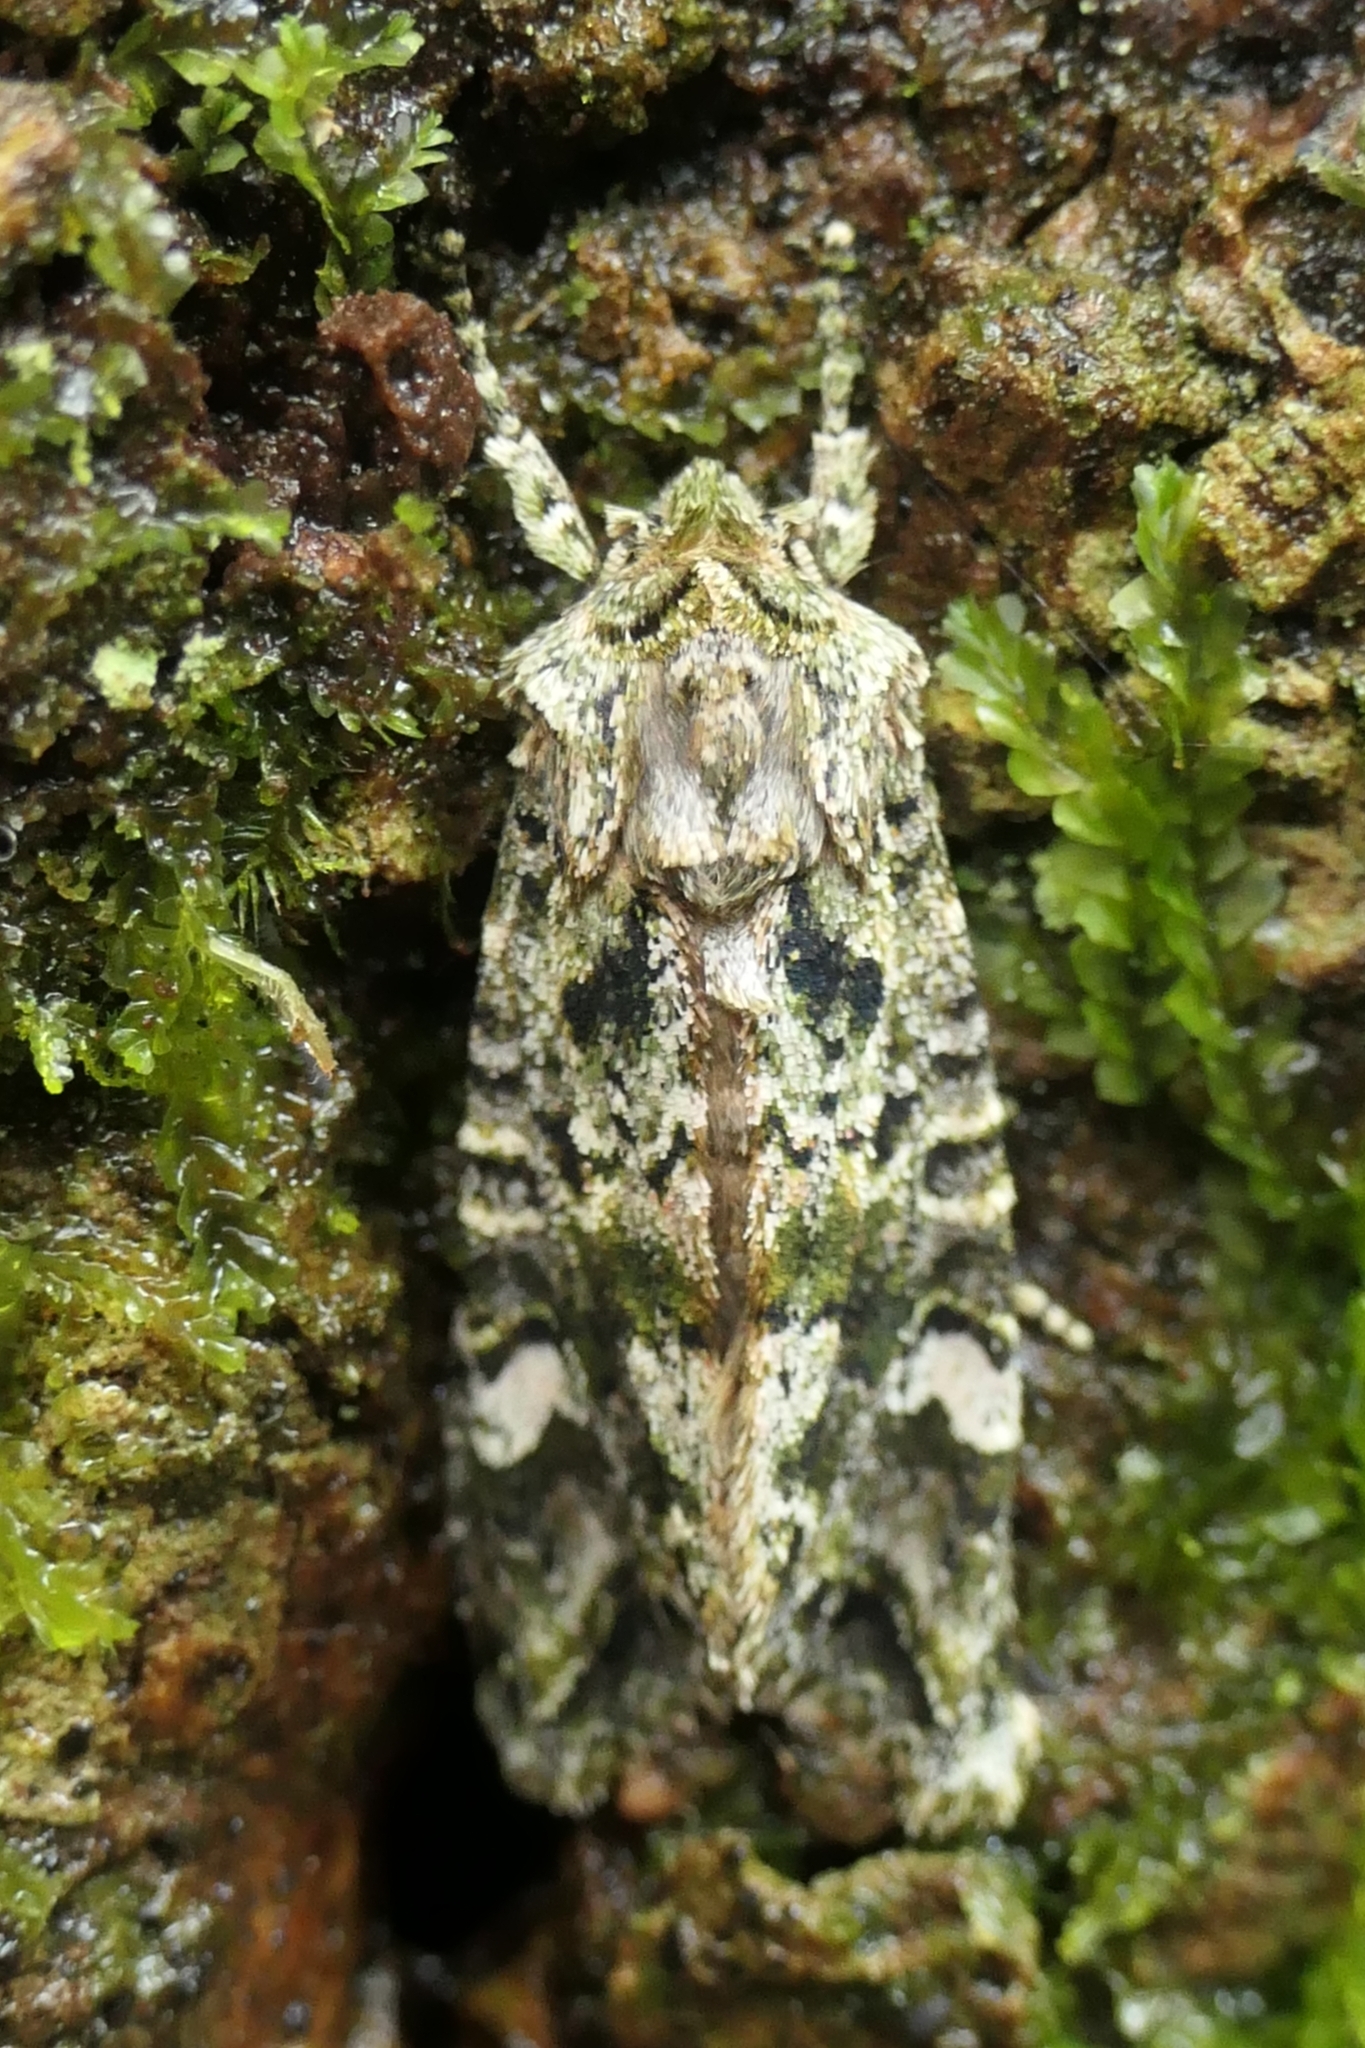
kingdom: Animalia
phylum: Arthropoda
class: Insecta
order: Lepidoptera
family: Noctuidae
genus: Ichneutica
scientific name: Ichneutica
